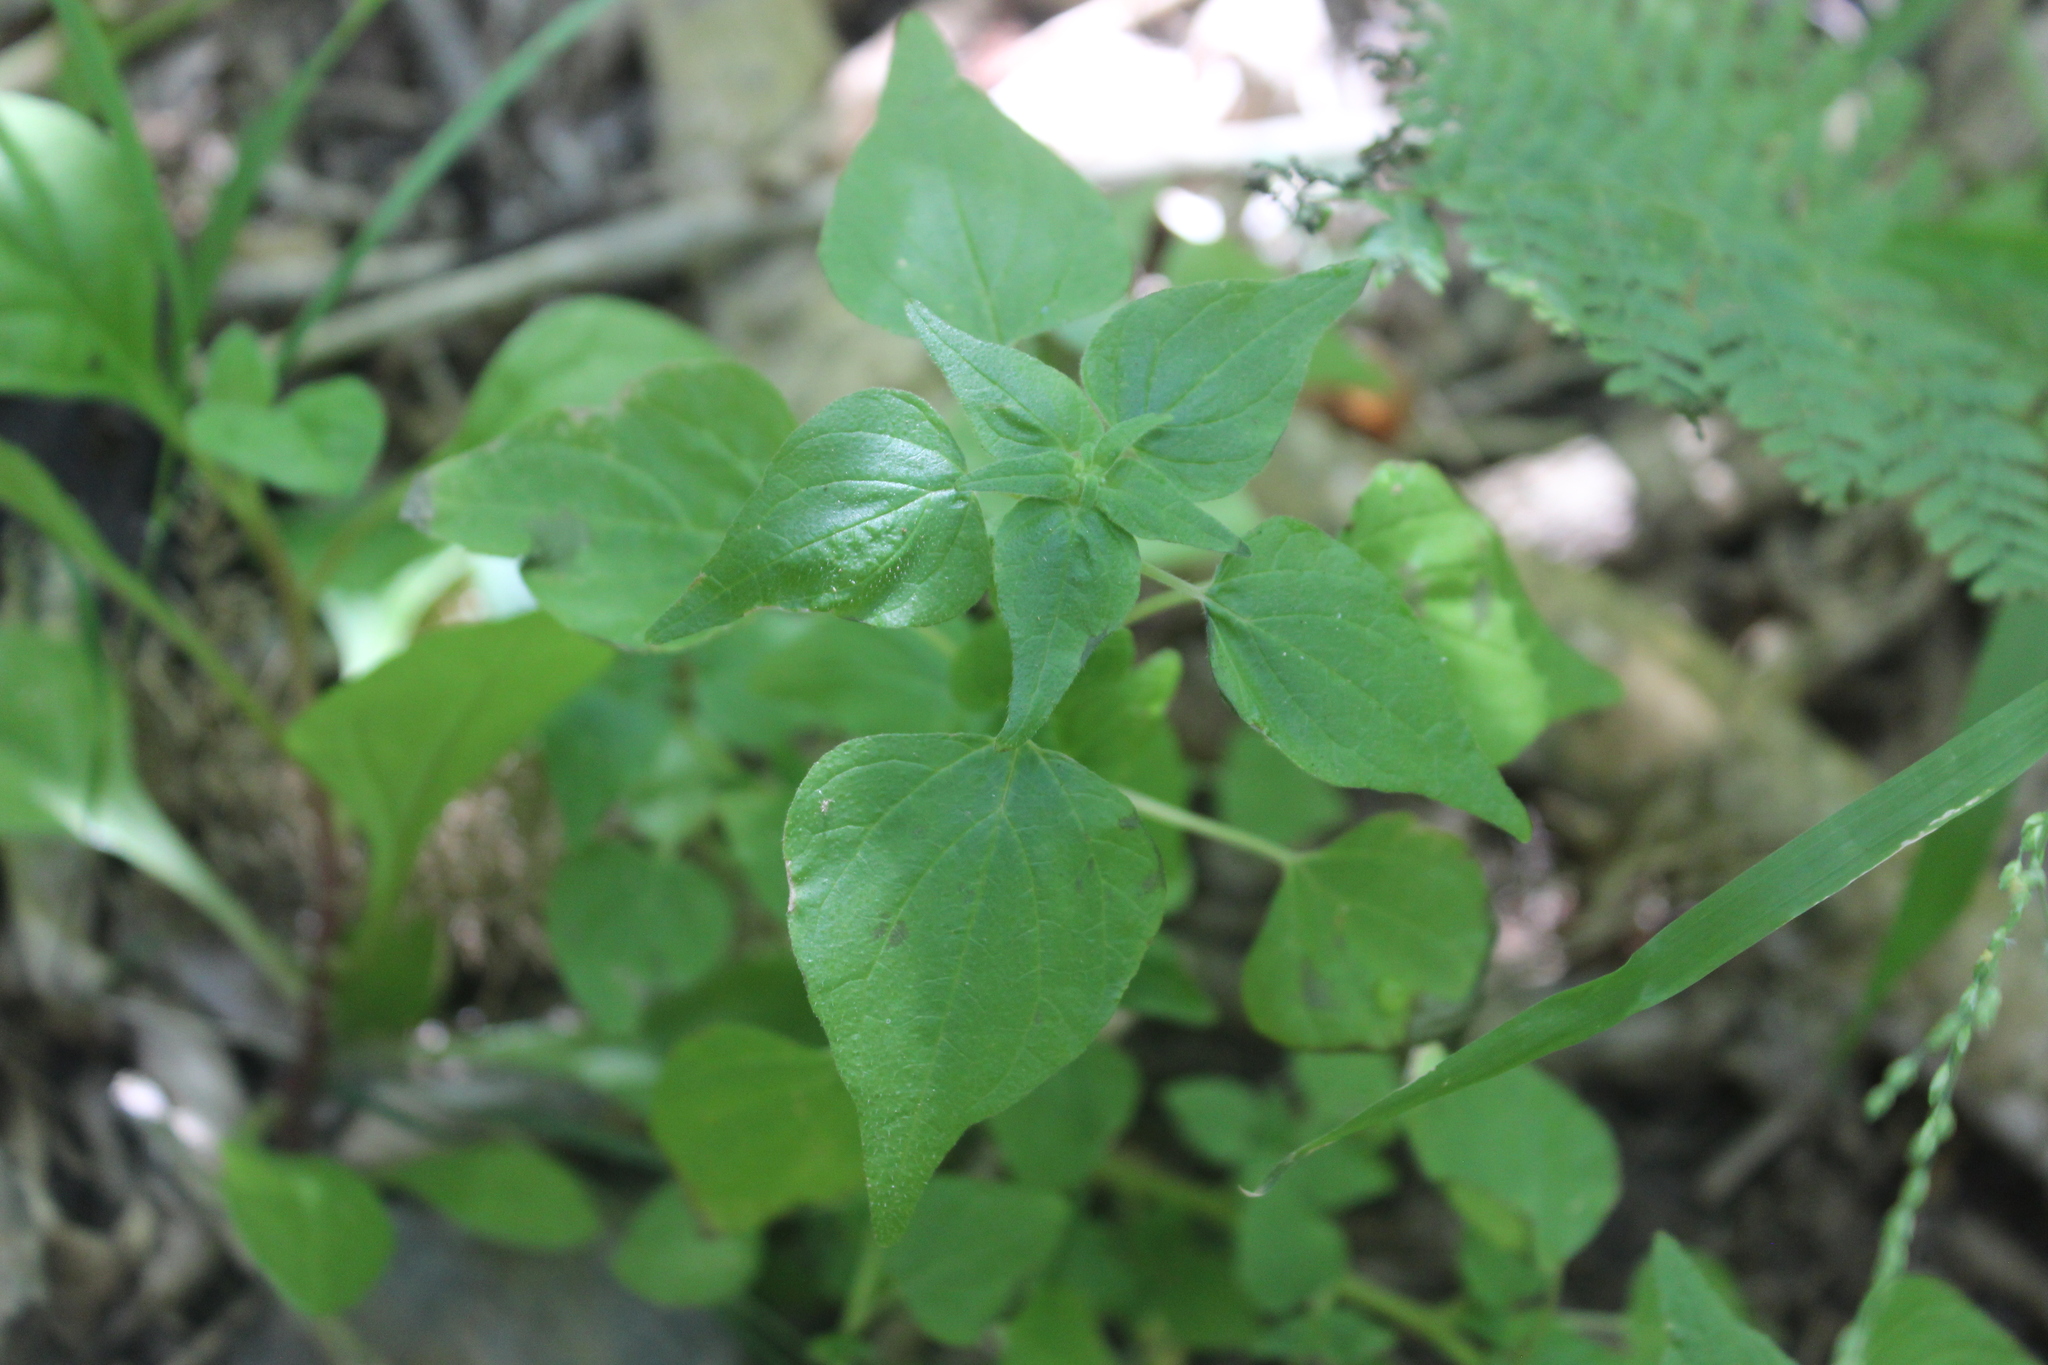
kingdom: Plantae
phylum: Tracheophyta
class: Magnoliopsida
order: Rosales
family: Urticaceae
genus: Parietaria
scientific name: Parietaria debilis
